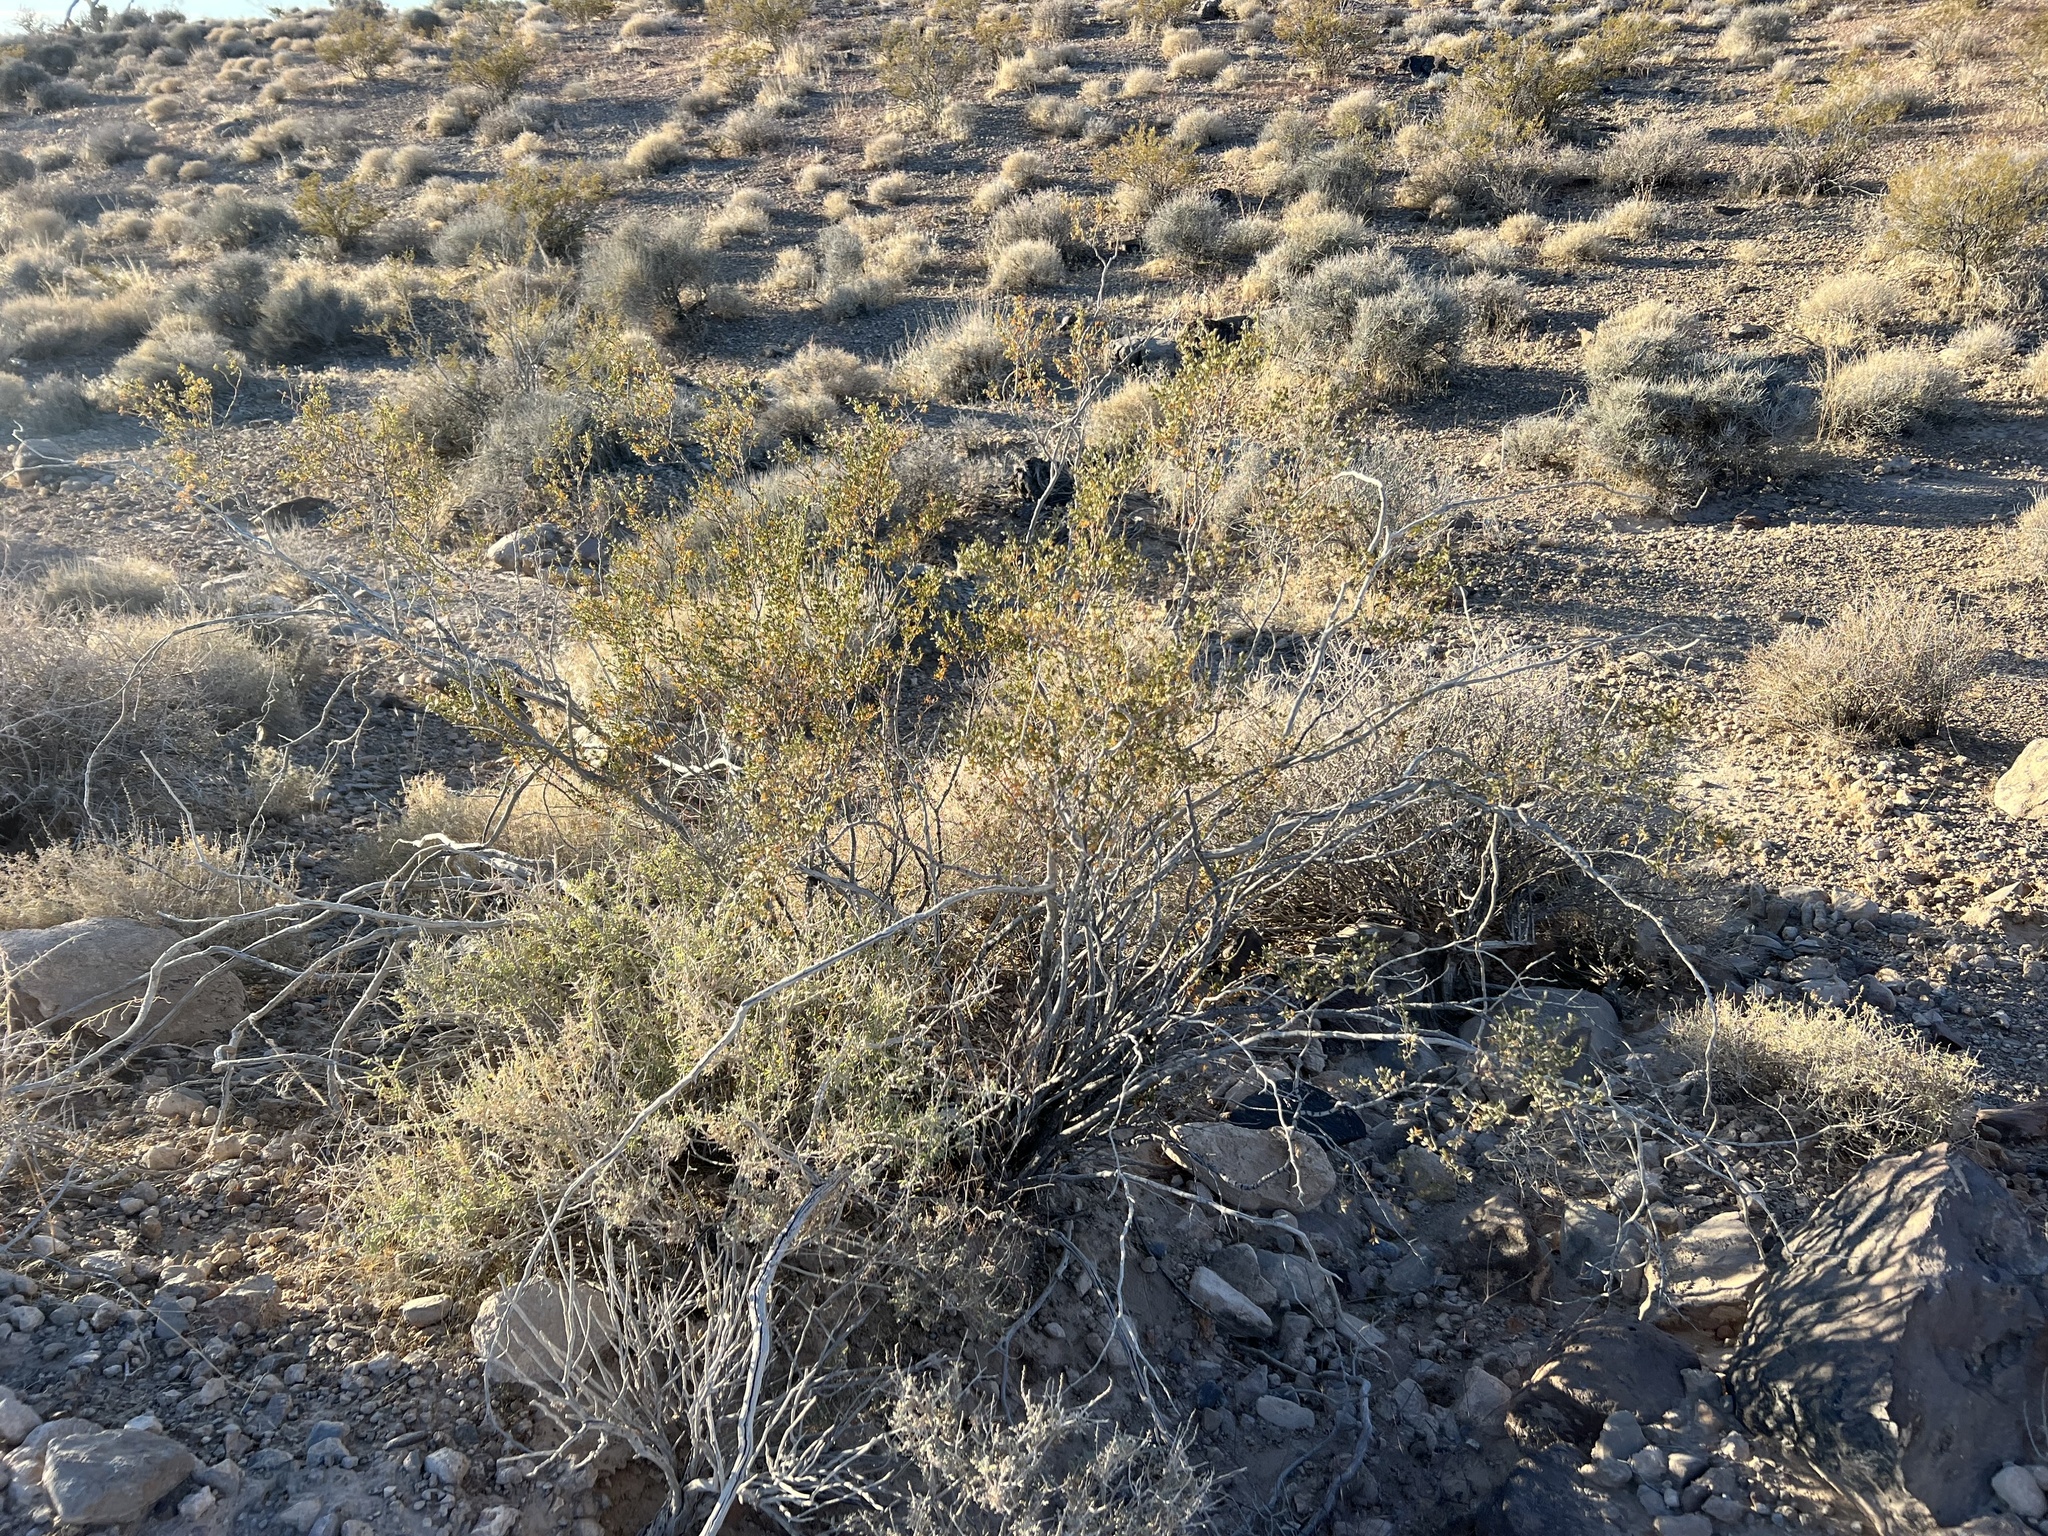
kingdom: Plantae
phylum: Tracheophyta
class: Magnoliopsida
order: Zygophyllales
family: Zygophyllaceae
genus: Larrea
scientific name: Larrea tridentata
